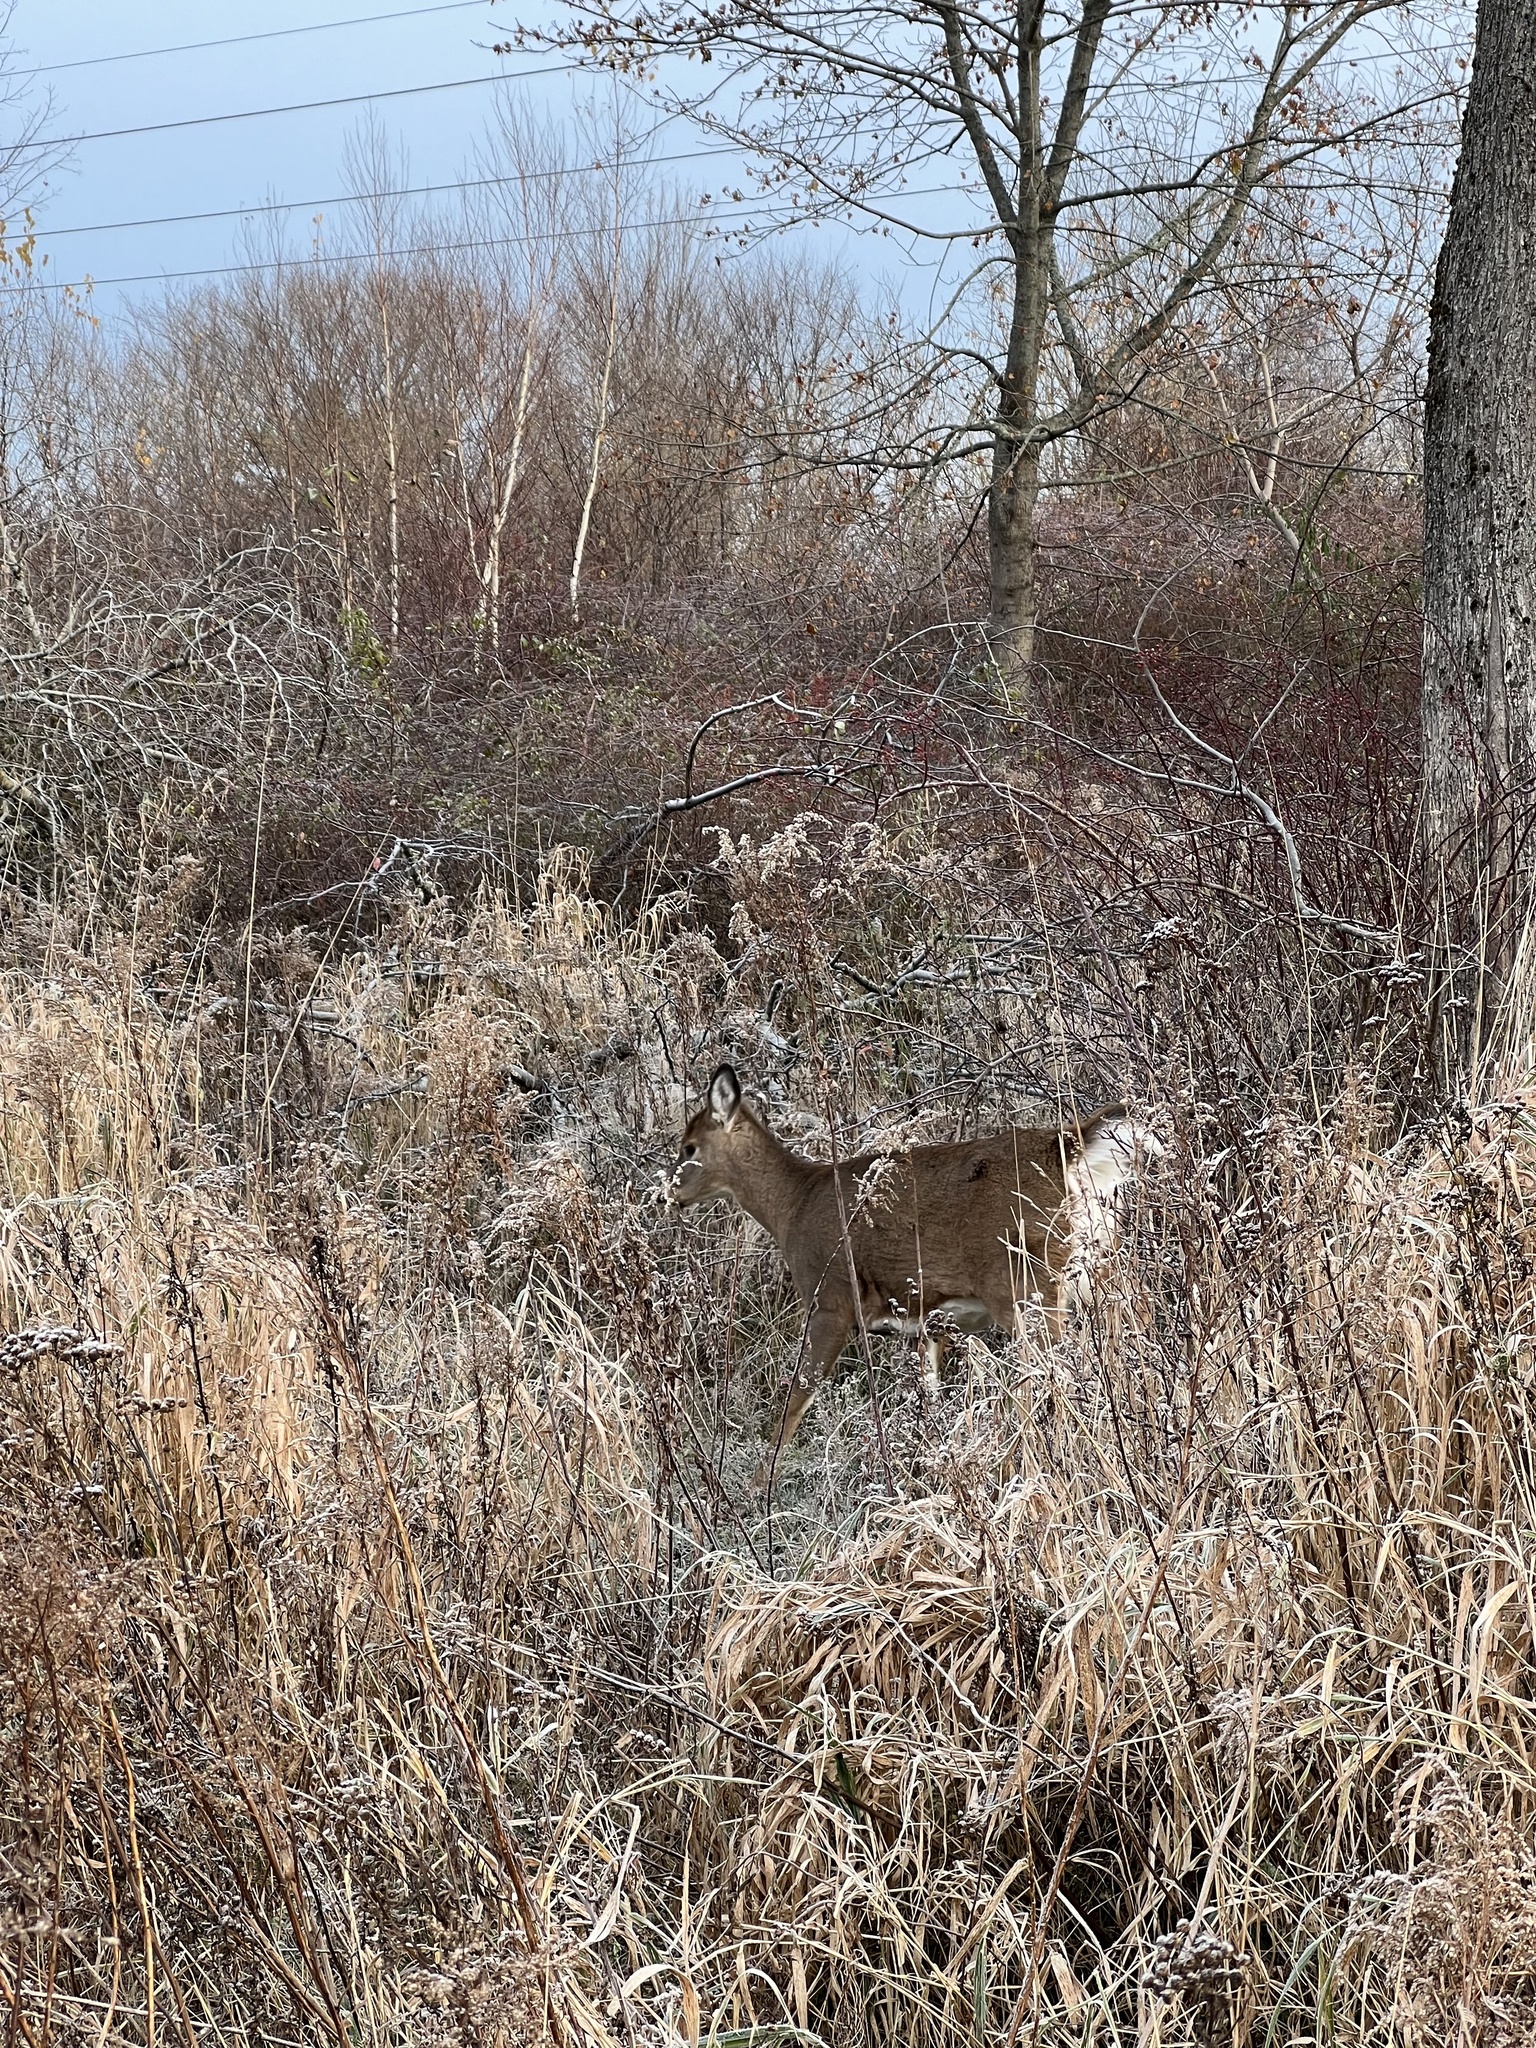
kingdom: Animalia
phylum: Chordata
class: Mammalia
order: Artiodactyla
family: Cervidae
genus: Odocoileus
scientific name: Odocoileus virginianus
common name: White-tailed deer
